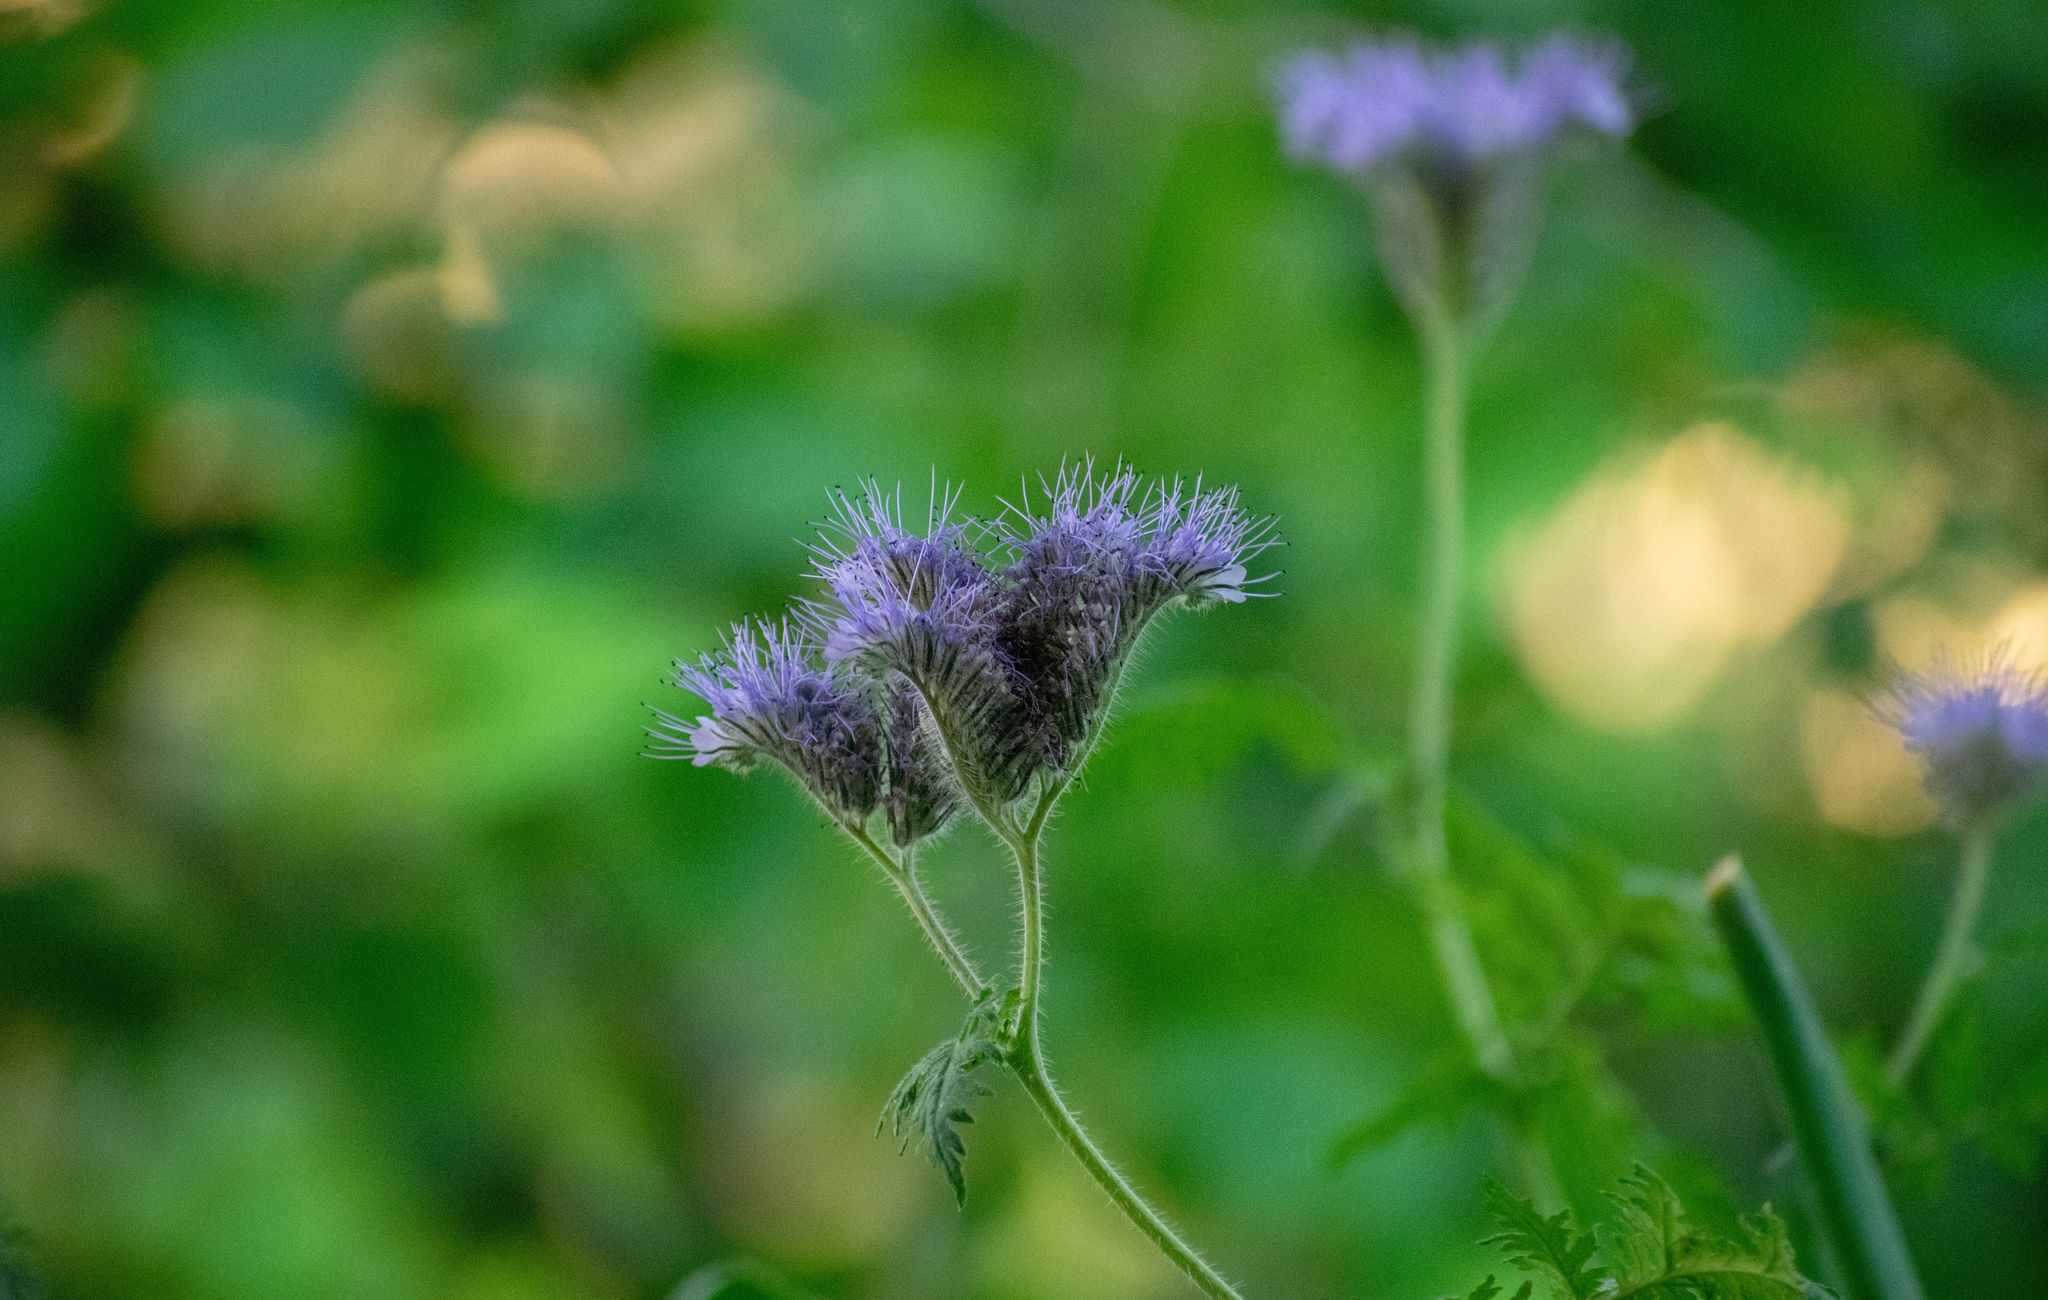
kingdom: Plantae
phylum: Tracheophyta
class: Magnoliopsida
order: Boraginales
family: Hydrophyllaceae
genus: Phacelia
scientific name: Phacelia tanacetifolia
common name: Phacelia
